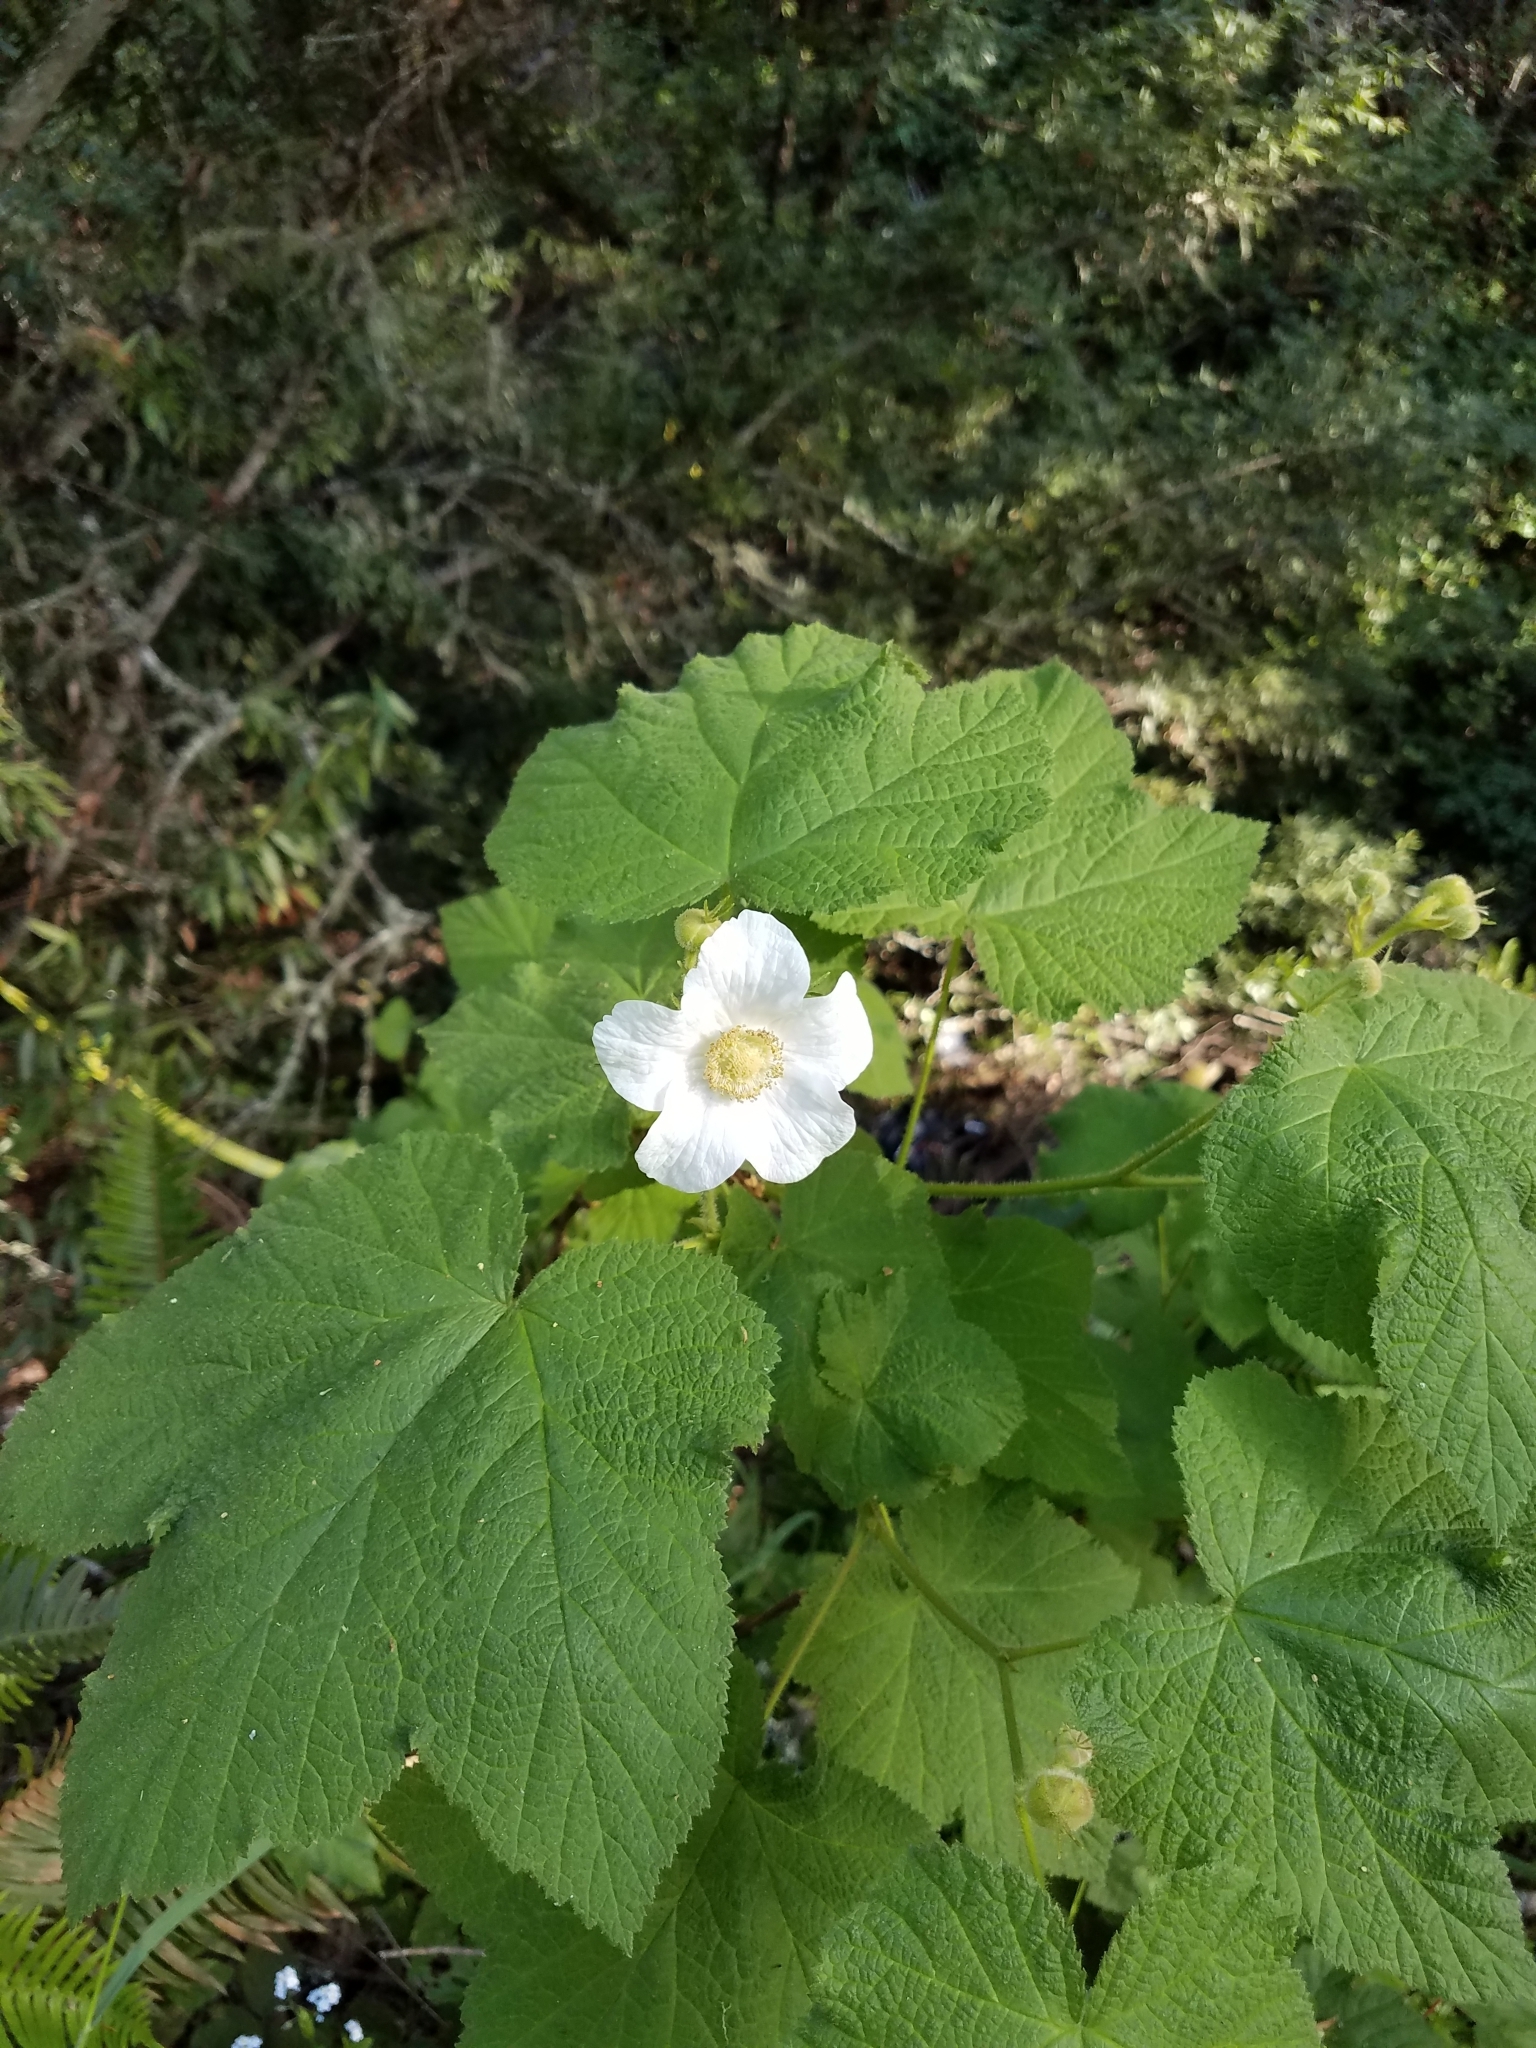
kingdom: Plantae
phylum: Tracheophyta
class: Magnoliopsida
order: Rosales
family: Rosaceae
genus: Rubus
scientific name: Rubus parviflorus
